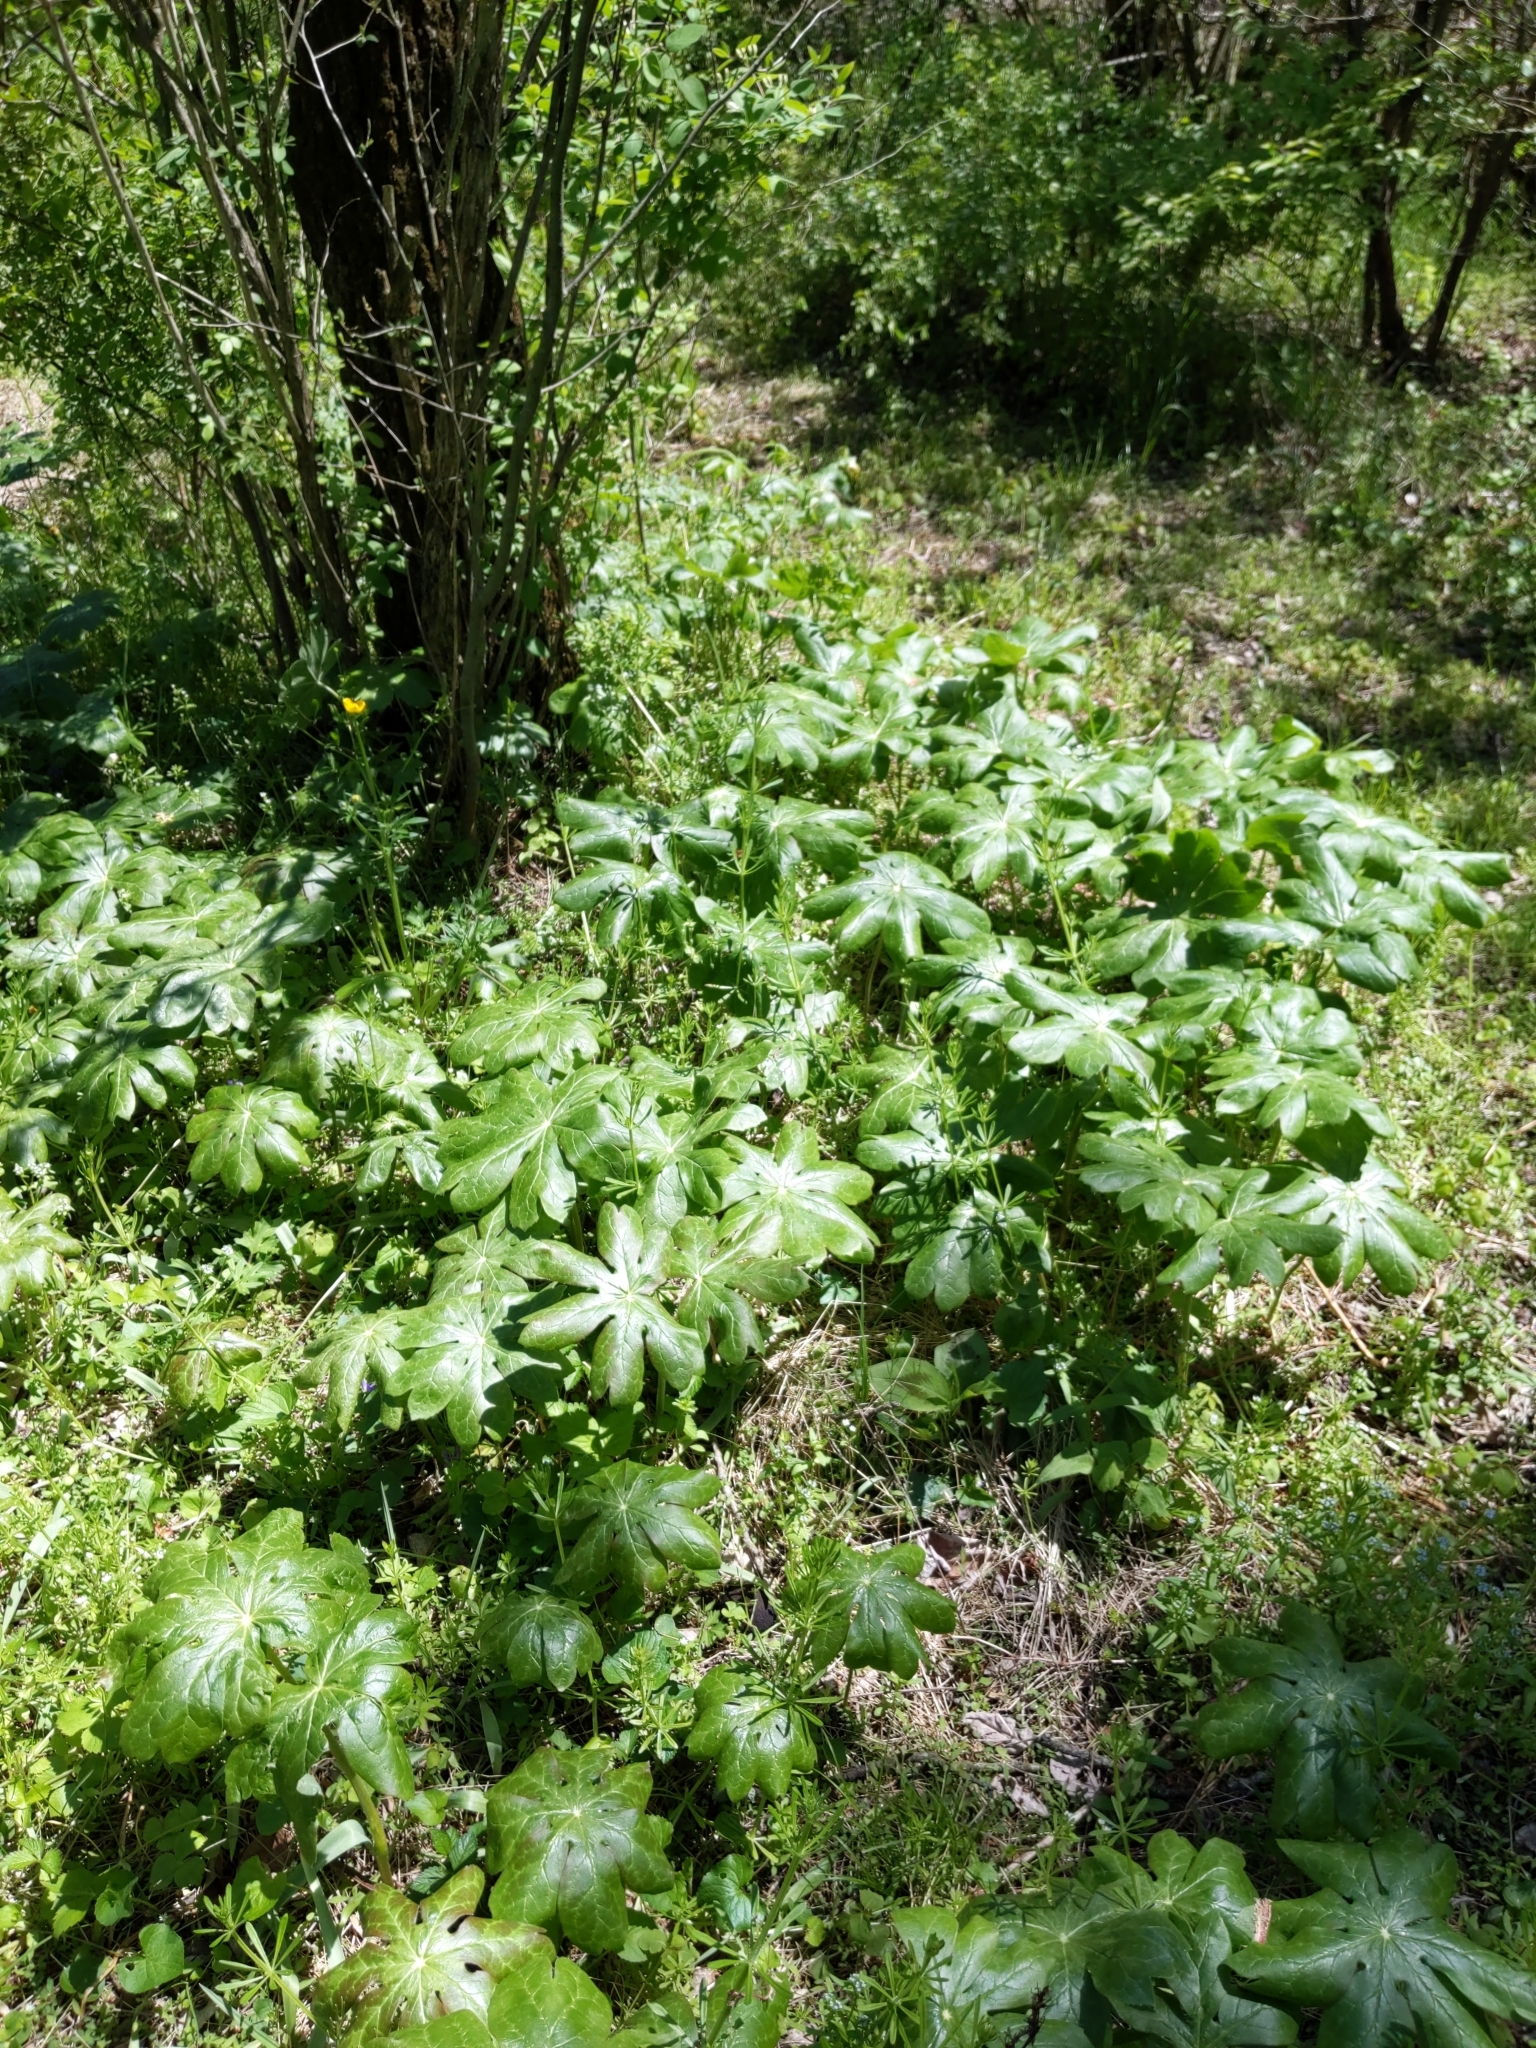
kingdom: Plantae
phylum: Tracheophyta
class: Magnoliopsida
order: Ranunculales
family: Berberidaceae
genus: Podophyllum
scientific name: Podophyllum peltatum
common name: Wild mandrake
